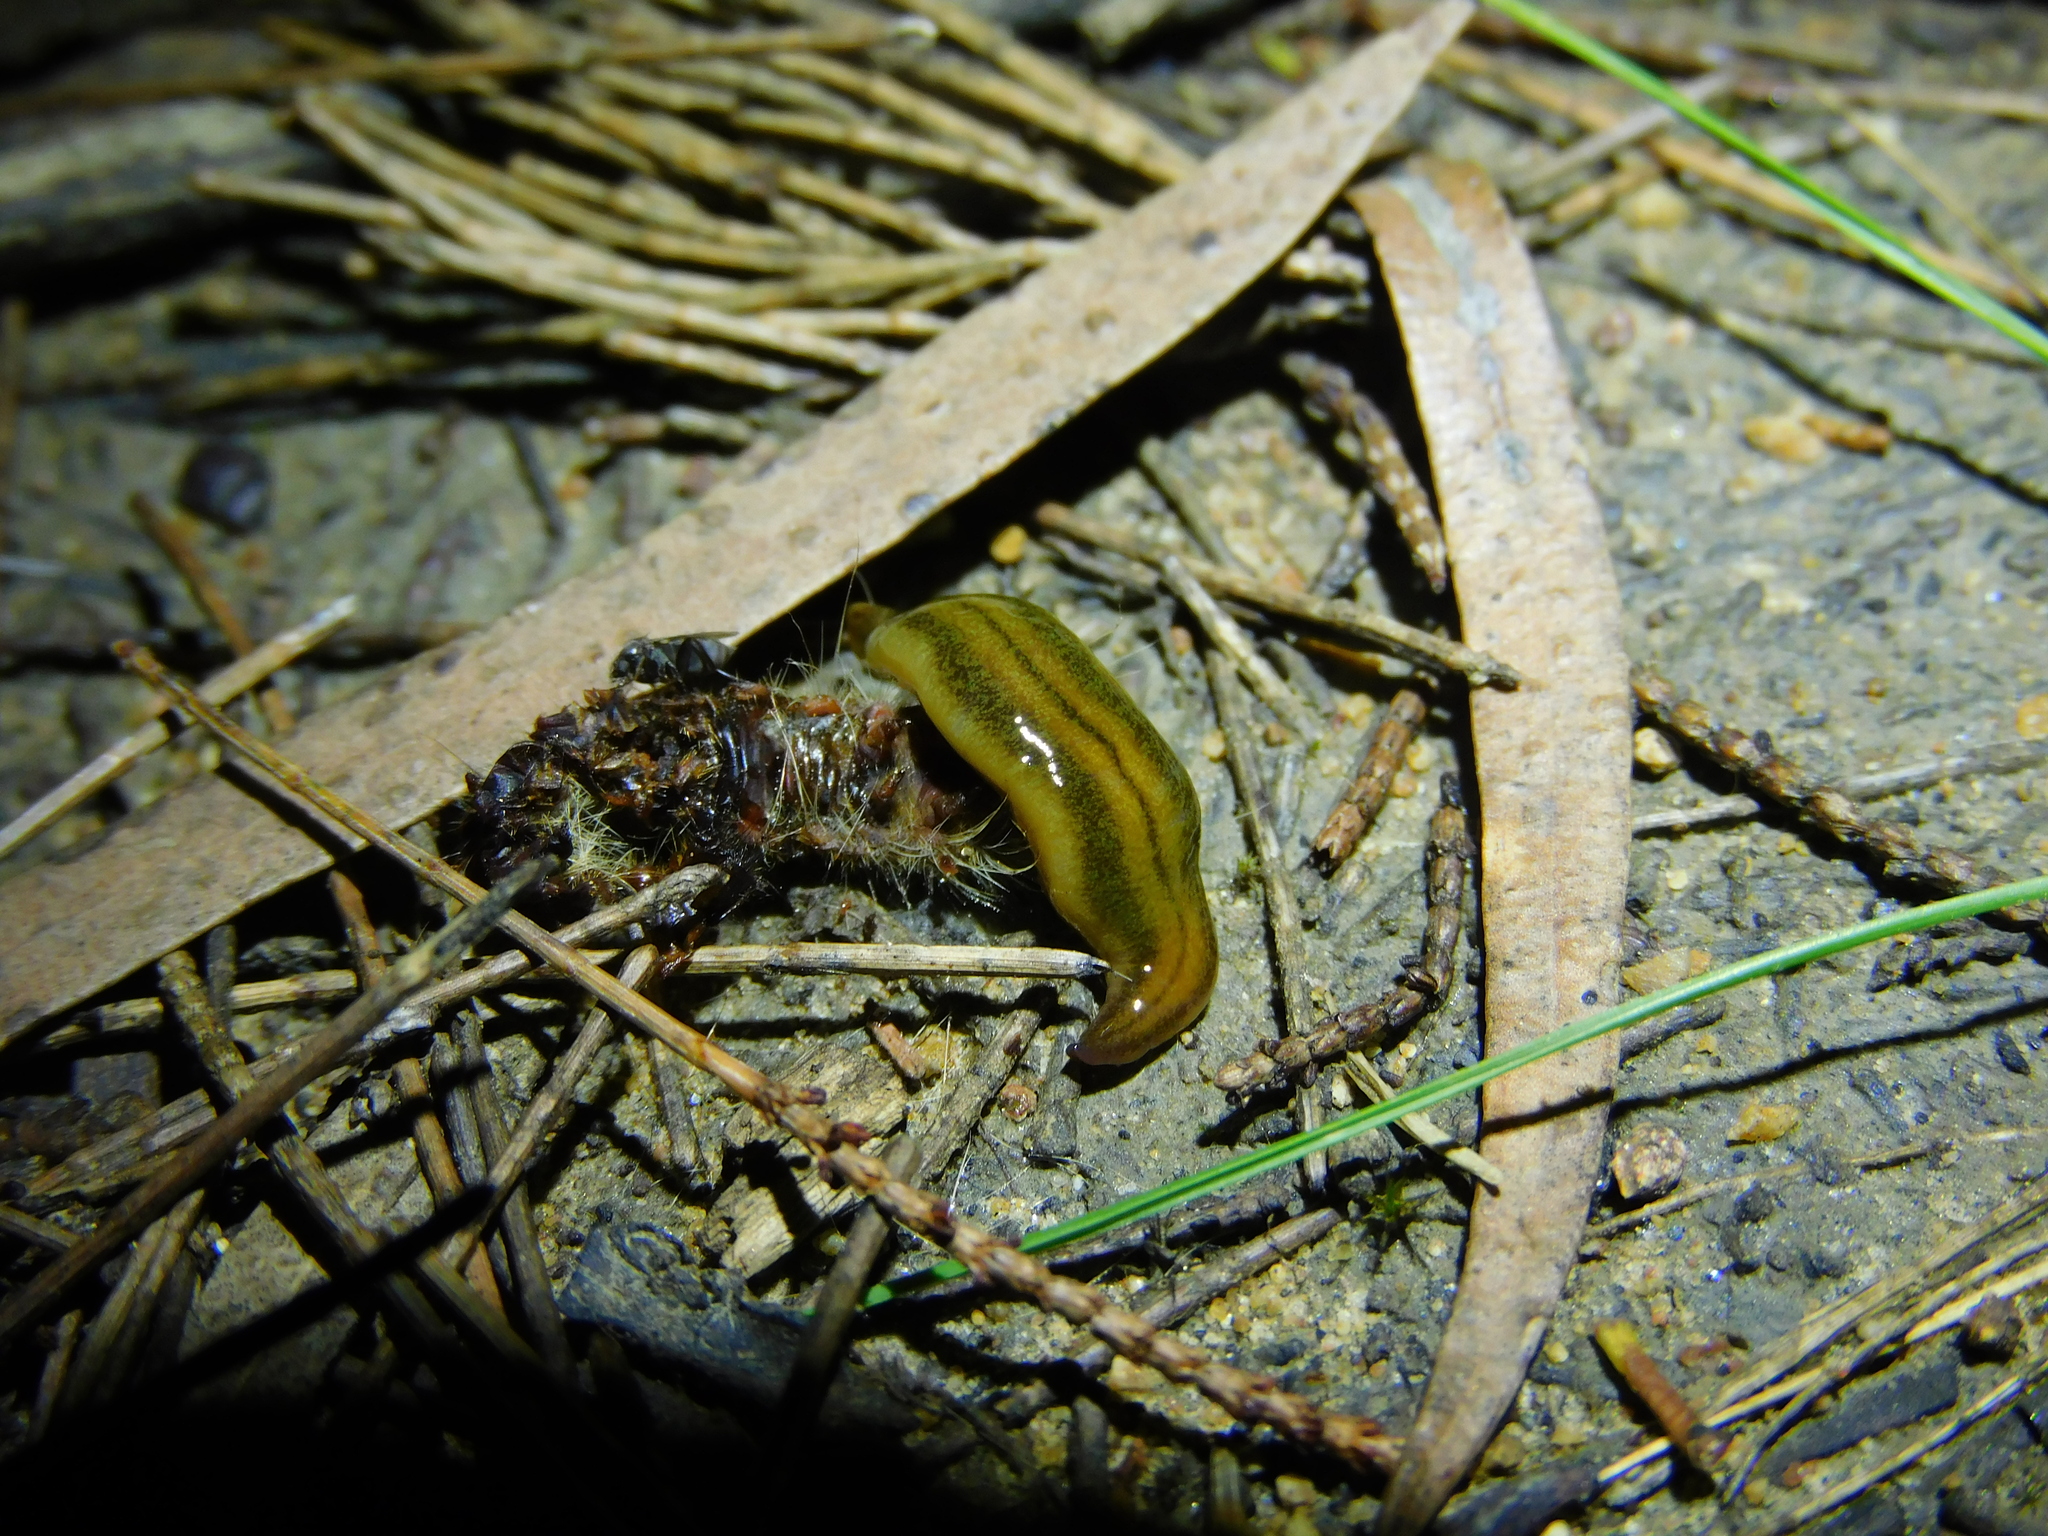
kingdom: Animalia
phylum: Platyhelminthes
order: Tricladida
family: Geoplanidae
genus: Tasmanoplana
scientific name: Tasmanoplana tasmaniana
